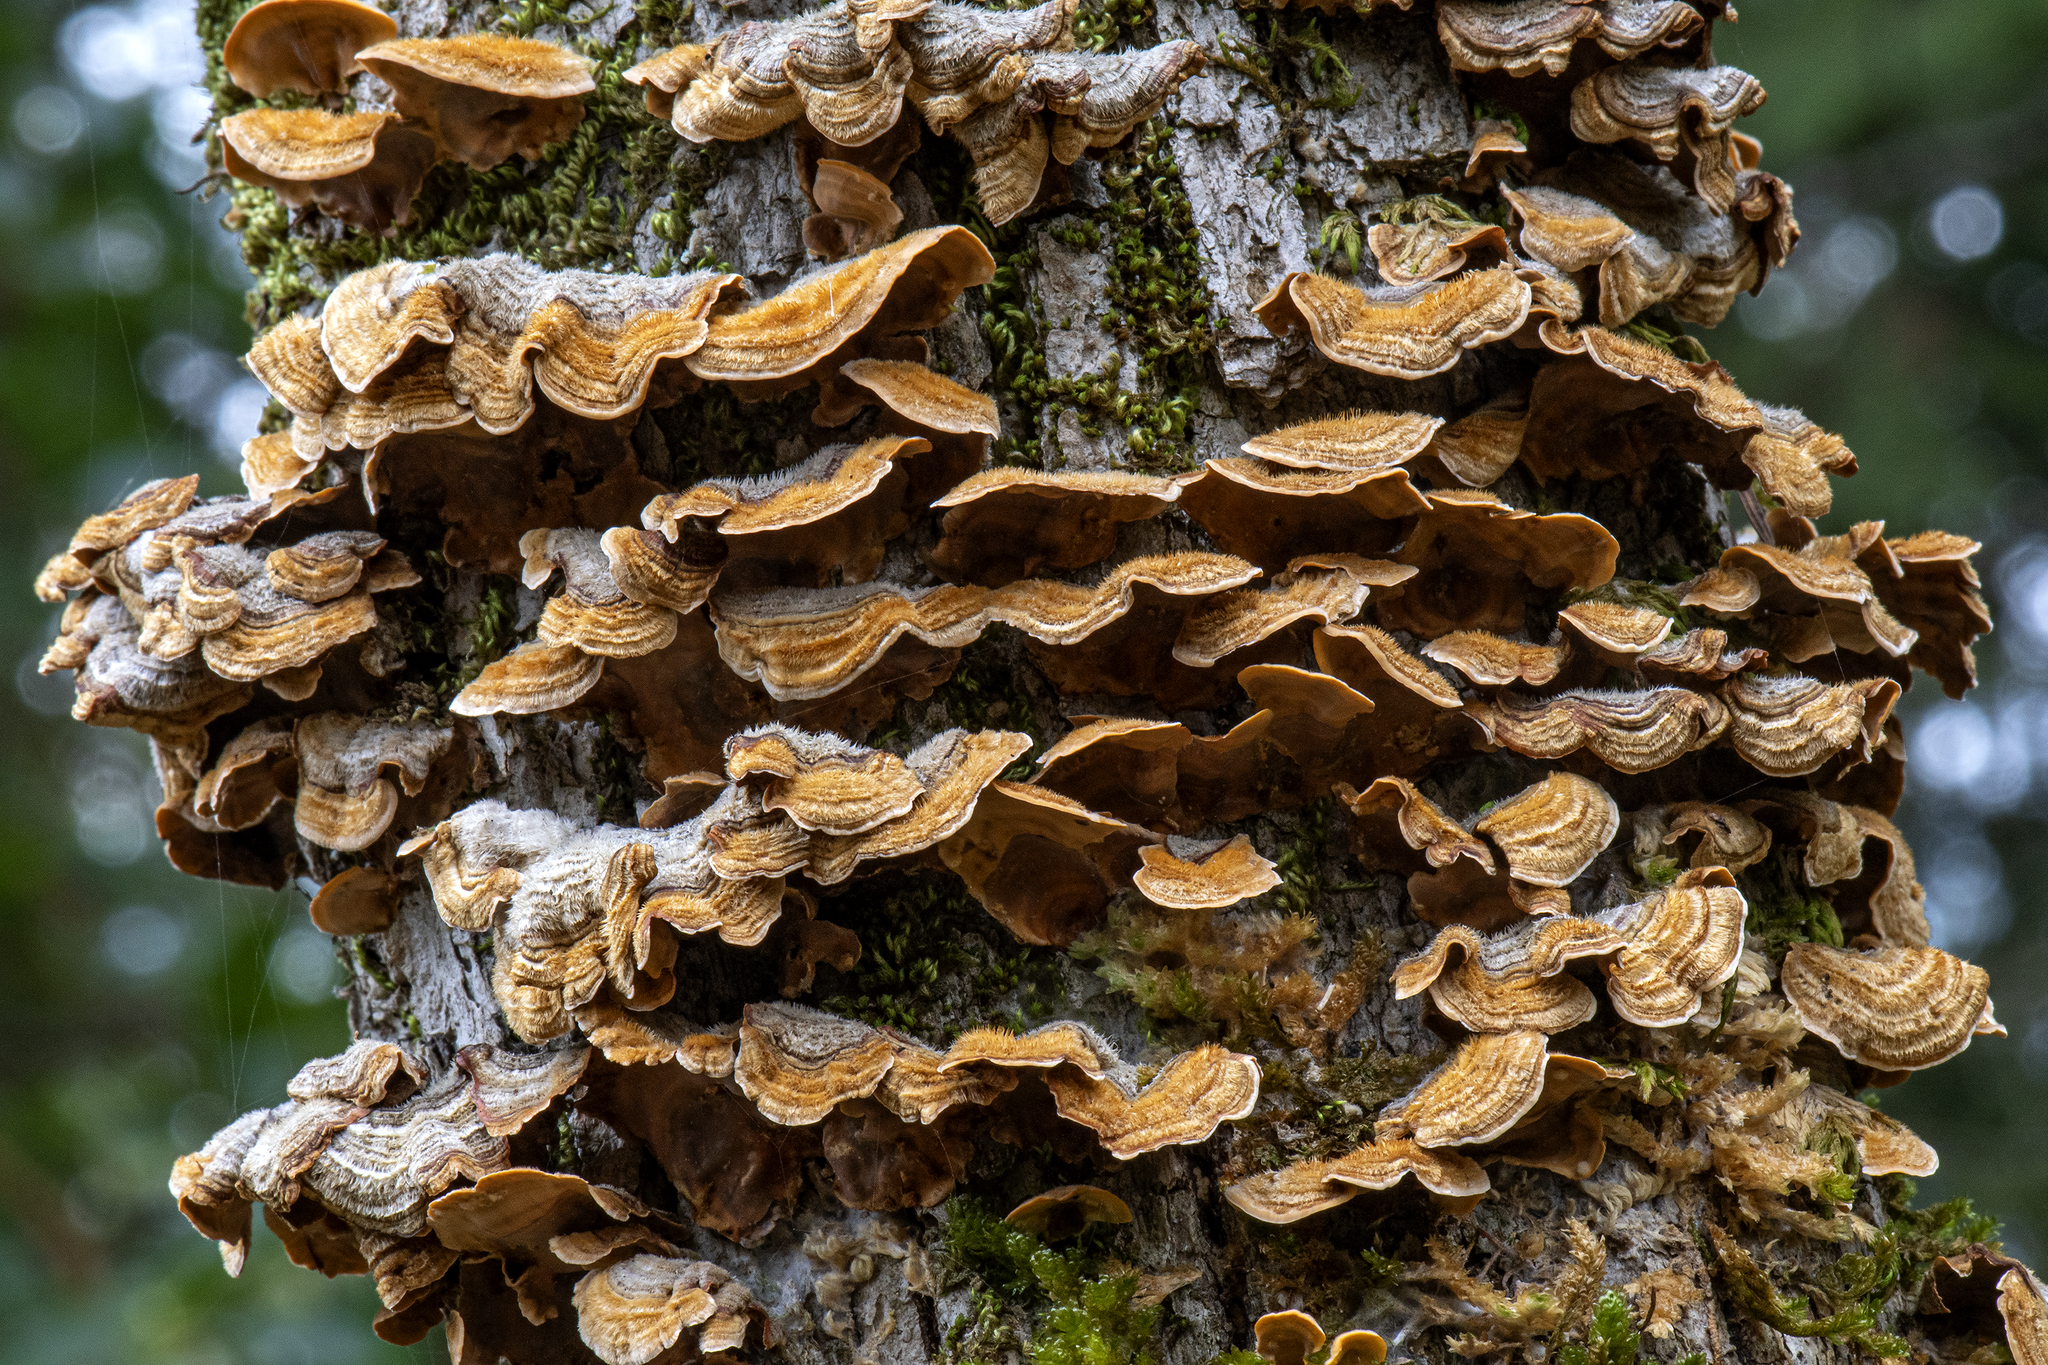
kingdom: Fungi
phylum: Basidiomycota
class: Agaricomycetes
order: Russulales
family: Stereaceae
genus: Stereum
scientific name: Stereum hirsutum
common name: Hairy curtain crust
